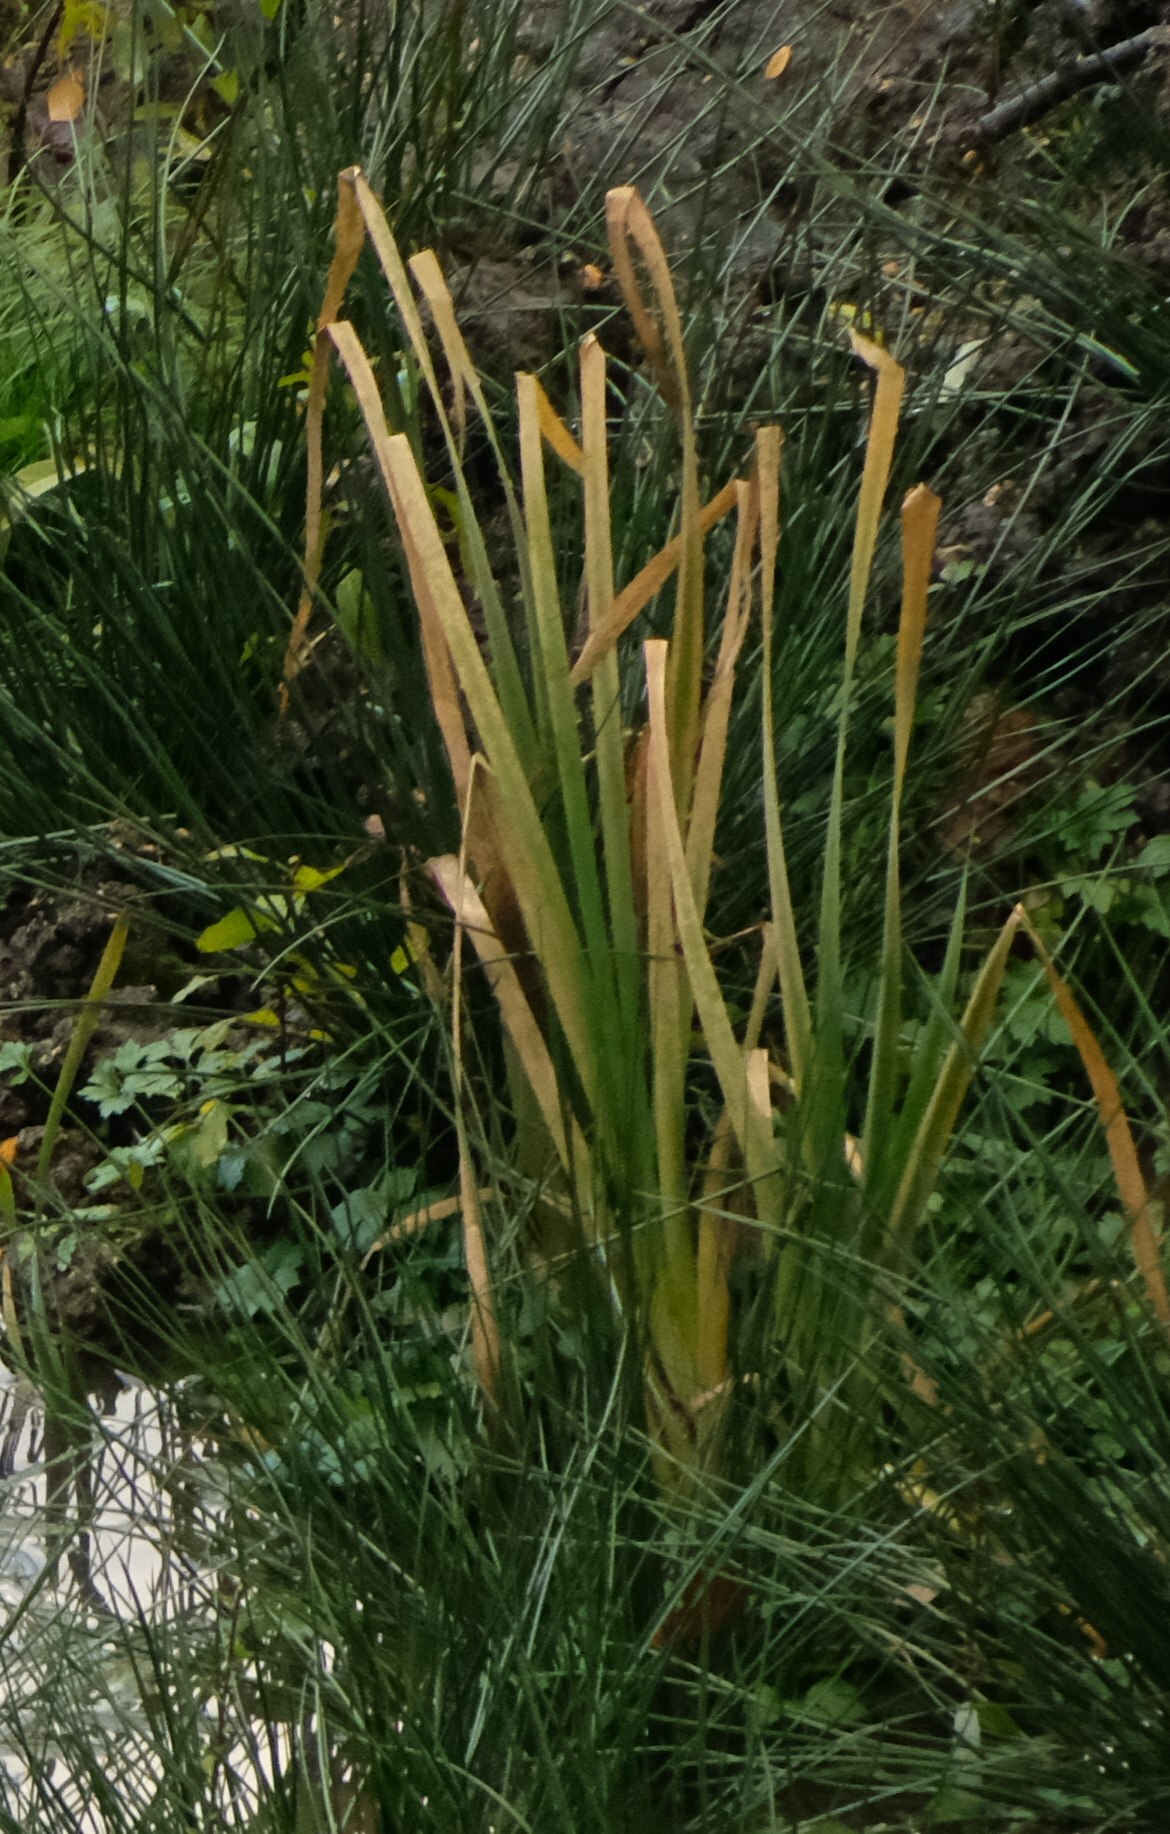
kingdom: Plantae
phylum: Tracheophyta
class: Liliopsida
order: Poales
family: Typhaceae
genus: Typha
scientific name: Typha latifolia
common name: Broadleaf cattail
